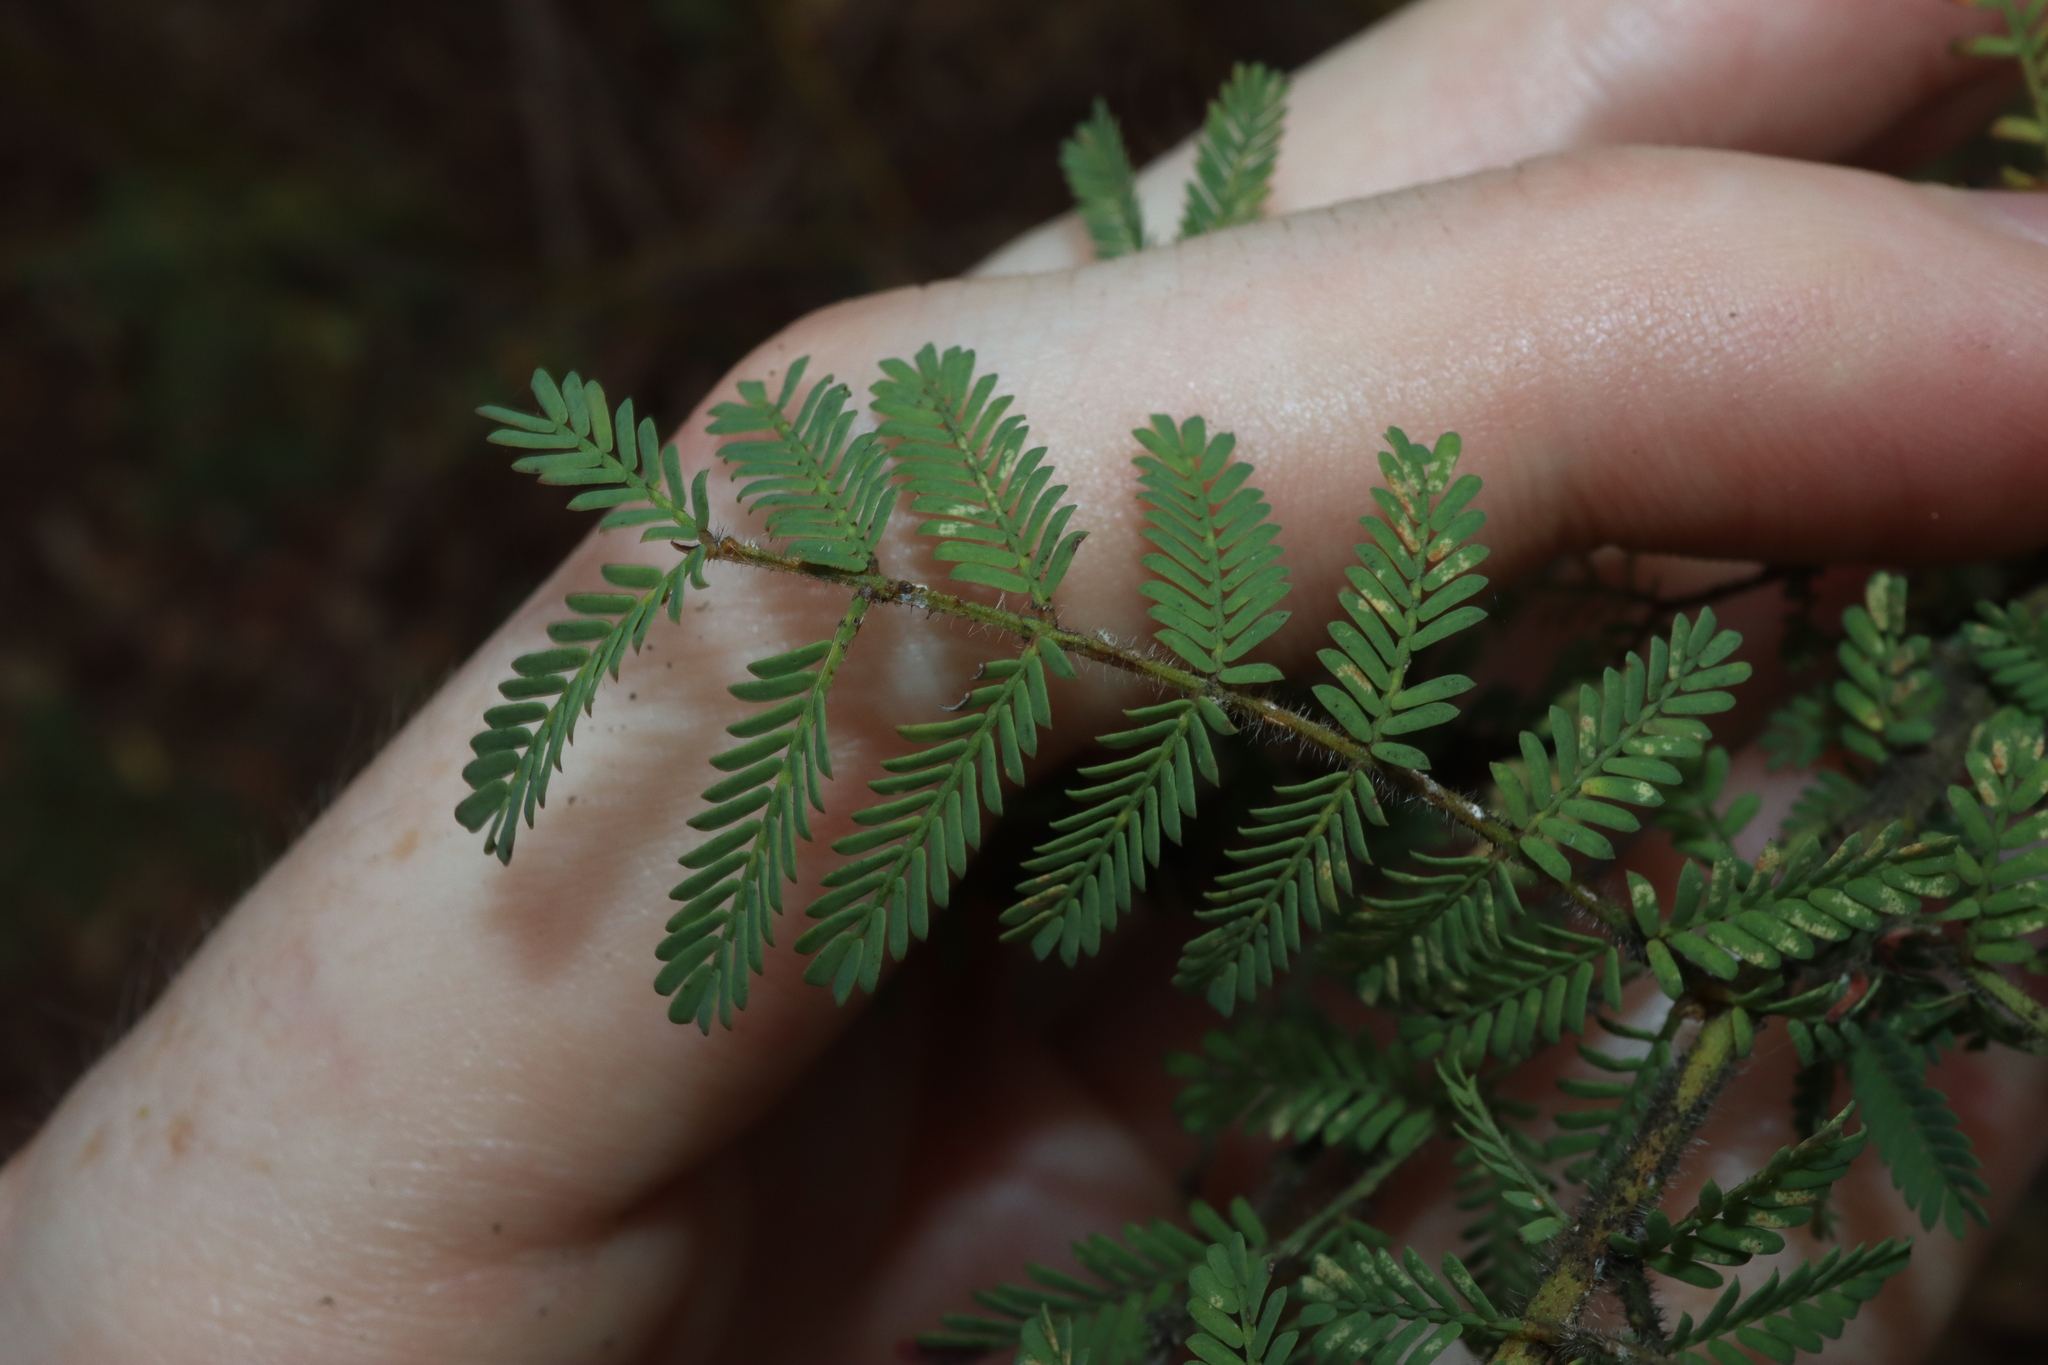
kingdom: Plantae
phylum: Tracheophyta
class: Magnoliopsida
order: Fabales
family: Fabaceae
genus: Acacia
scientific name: Acacia pubescens
